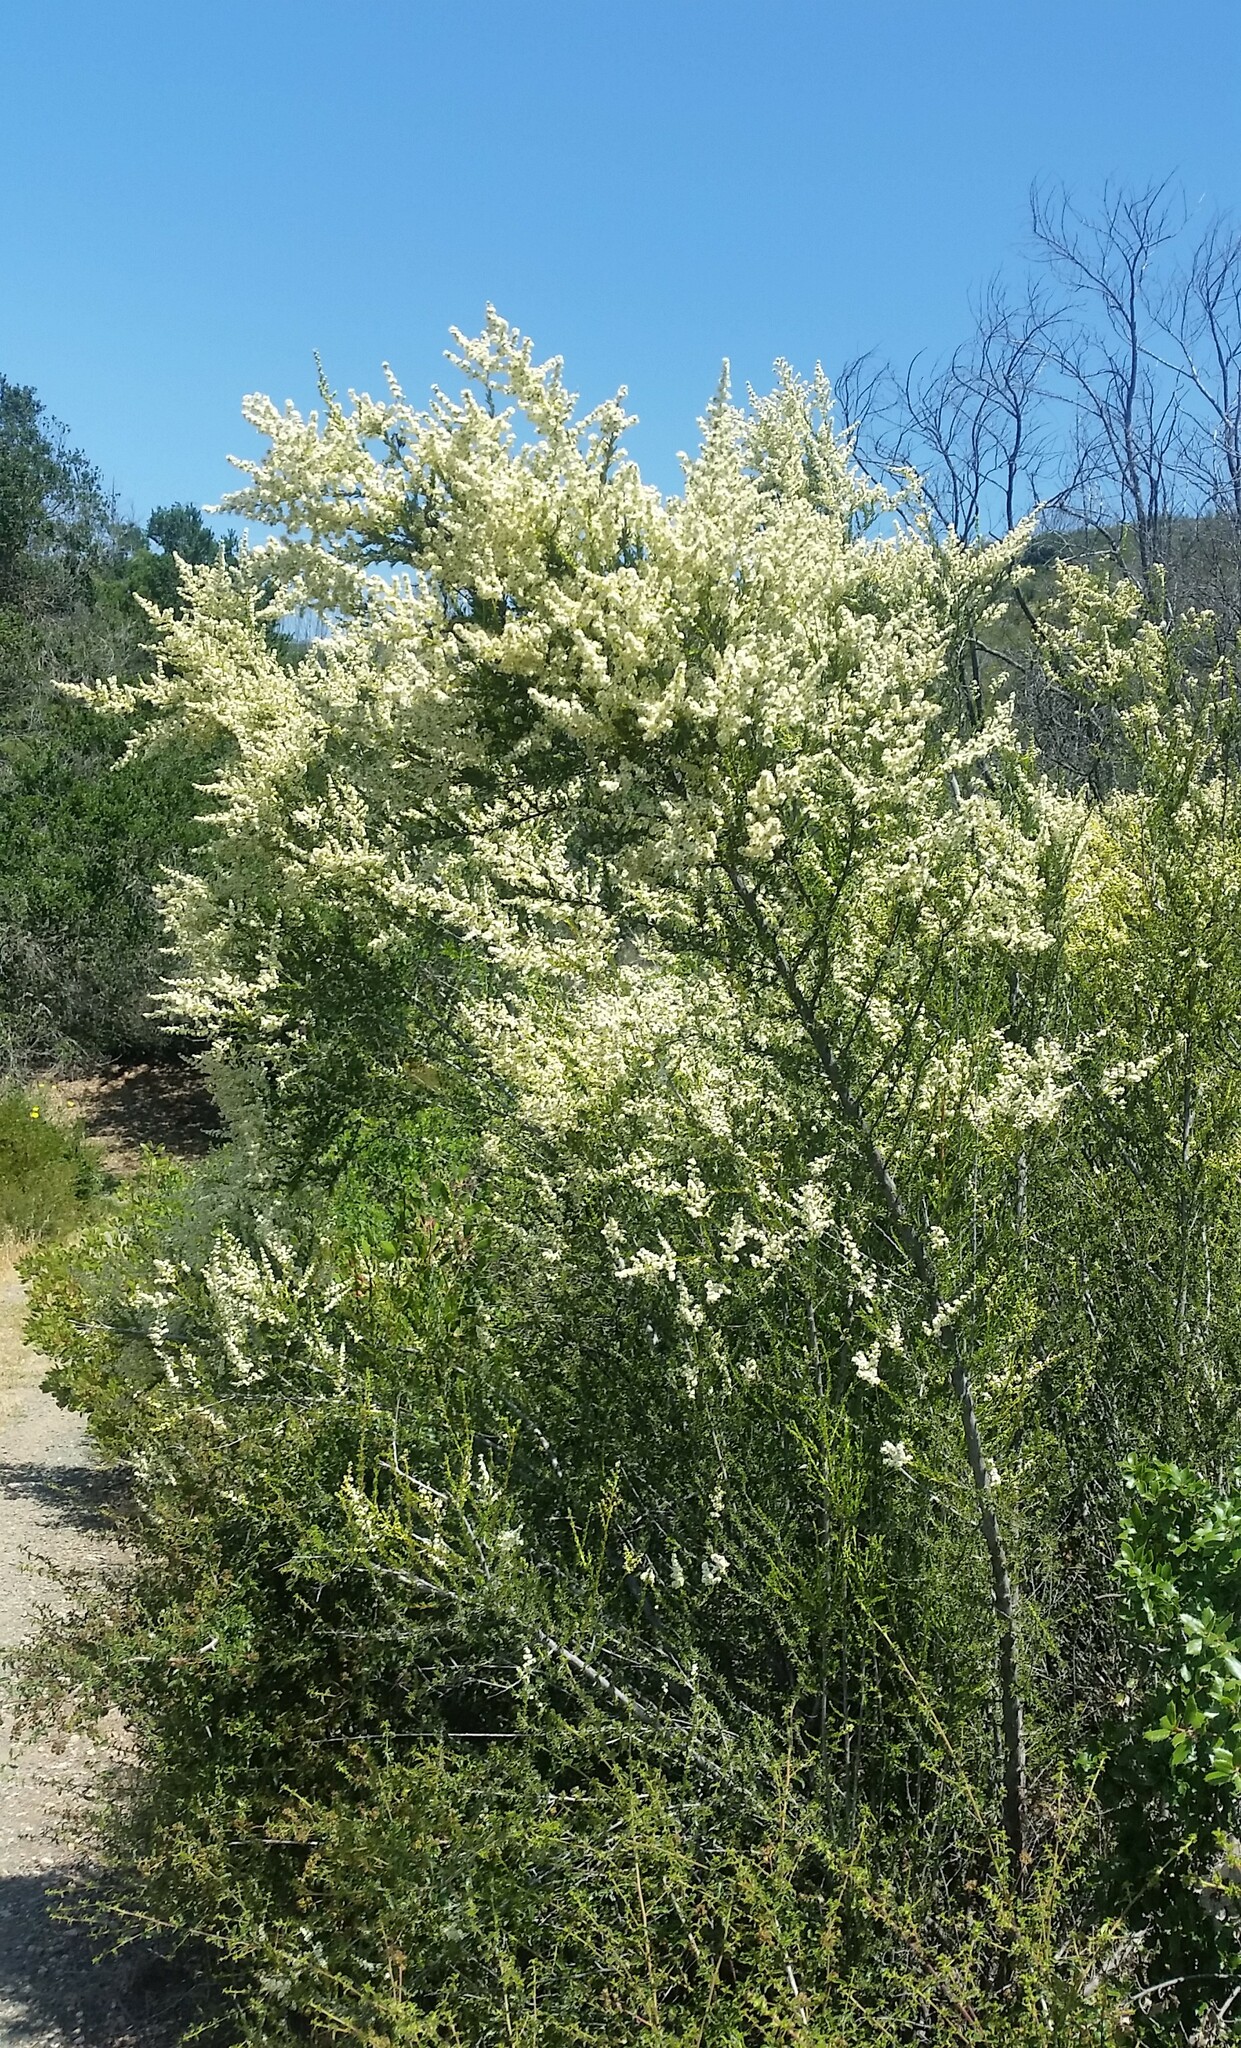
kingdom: Plantae
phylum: Tracheophyta
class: Magnoliopsida
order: Rosales
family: Rosaceae
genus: Adenostoma
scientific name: Adenostoma fasciculatum
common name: Chamise
